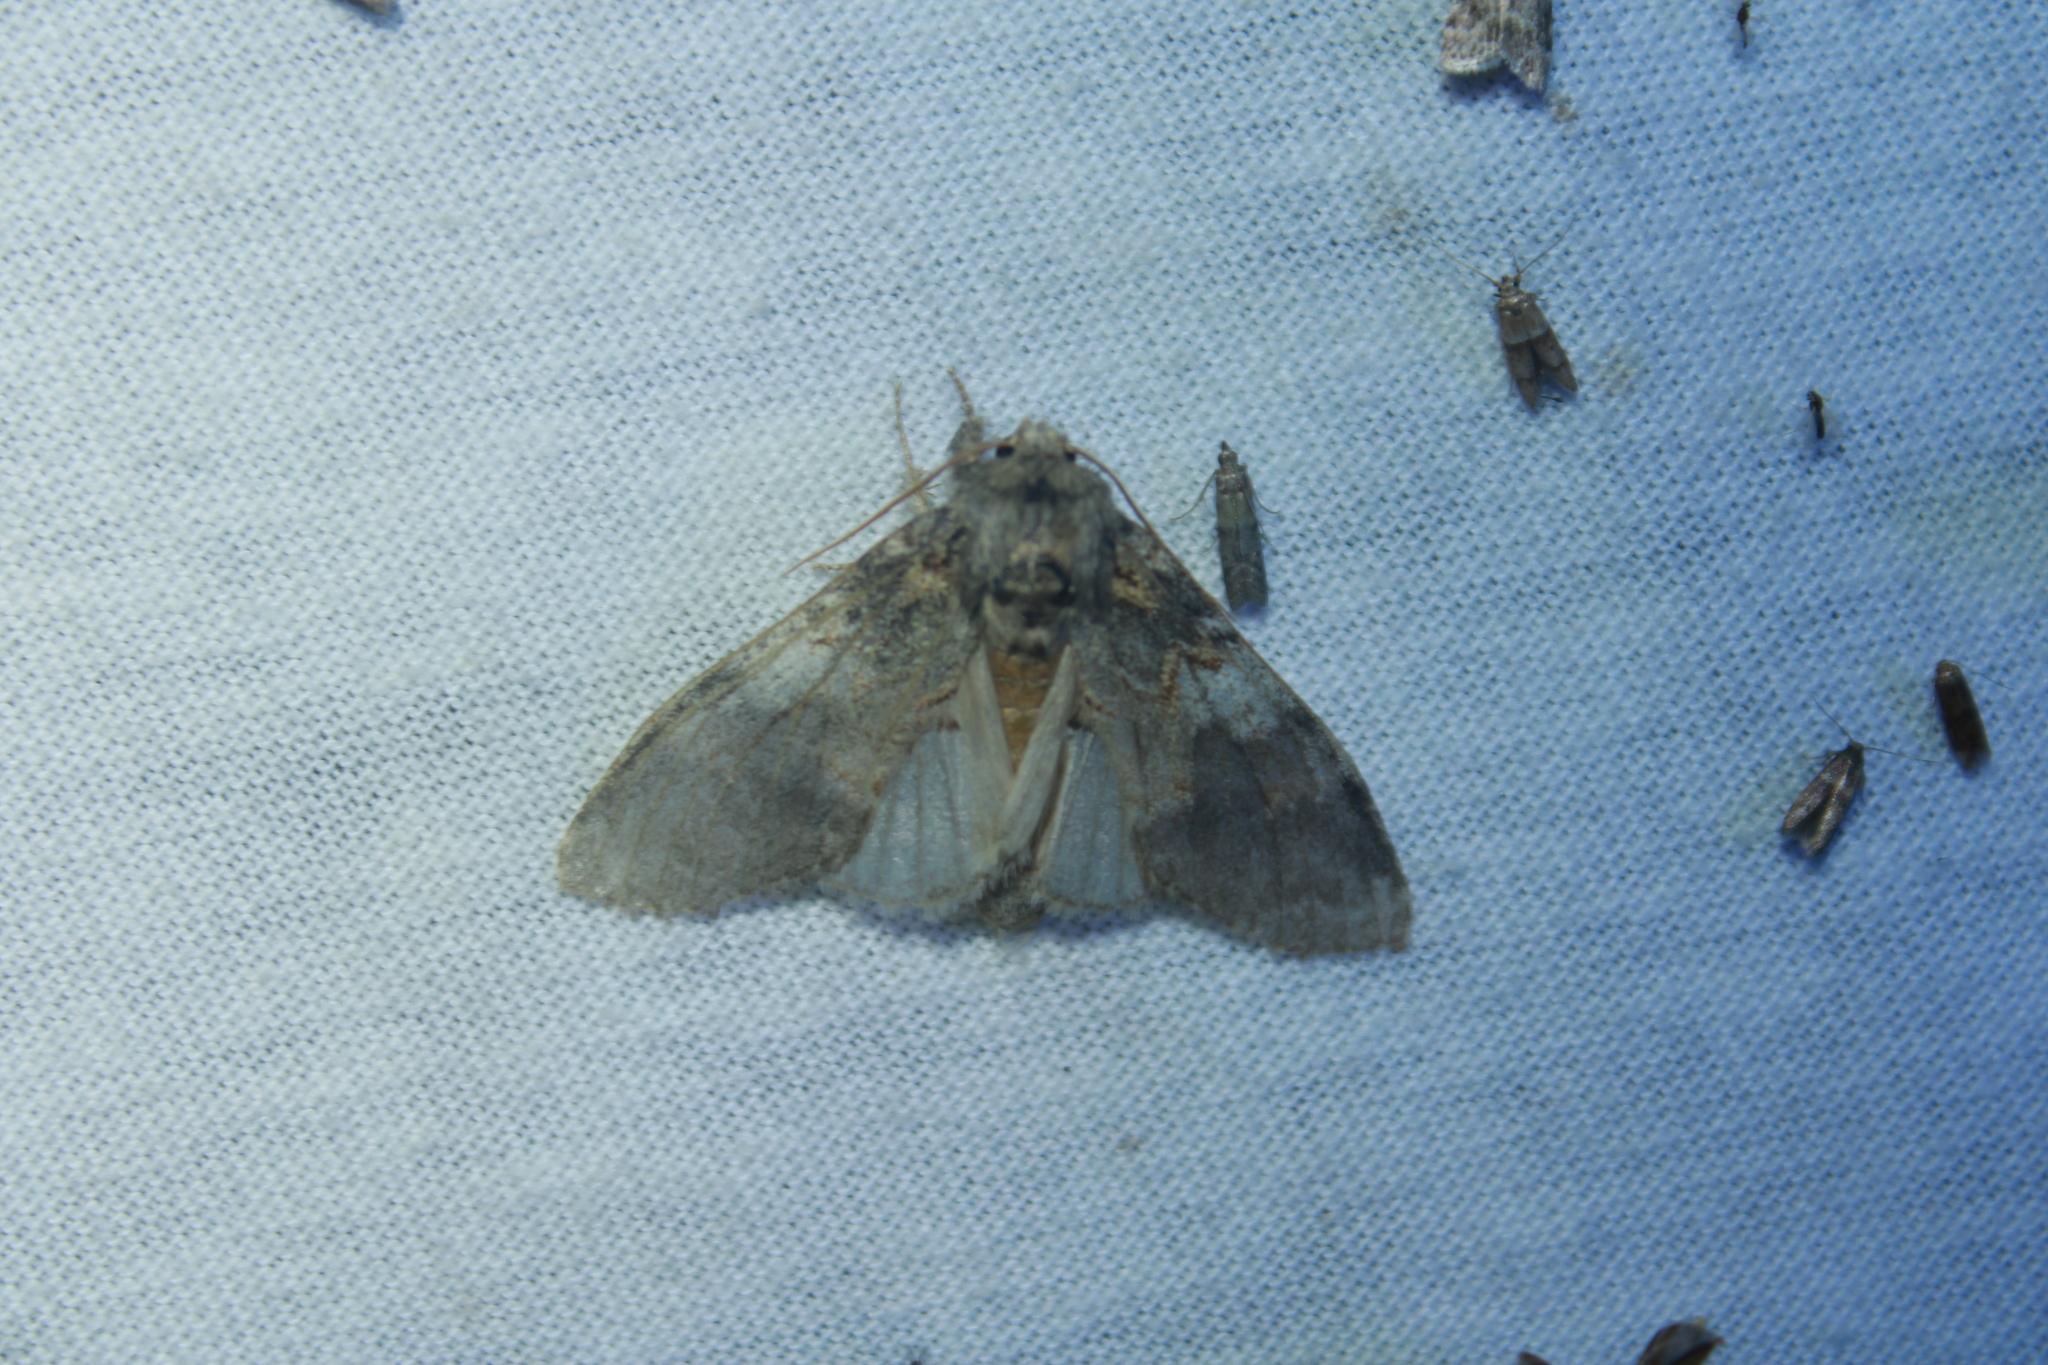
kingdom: Animalia
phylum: Arthropoda
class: Insecta
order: Lepidoptera
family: Notodontidae
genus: Peridea
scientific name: Peridea angulosa
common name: Angulose prominent
